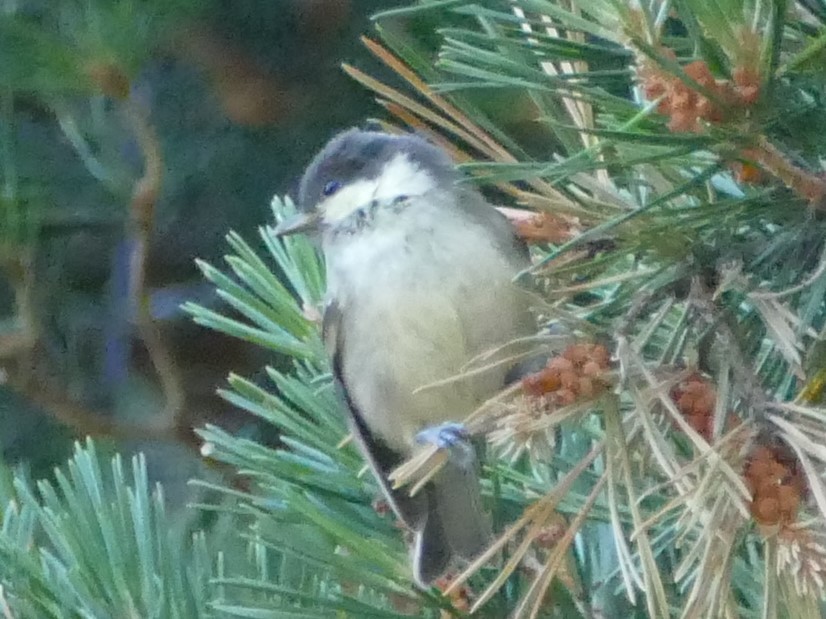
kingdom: Animalia
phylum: Chordata
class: Aves
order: Passeriformes
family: Paridae
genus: Periparus
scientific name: Periparus ater
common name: Coal tit
